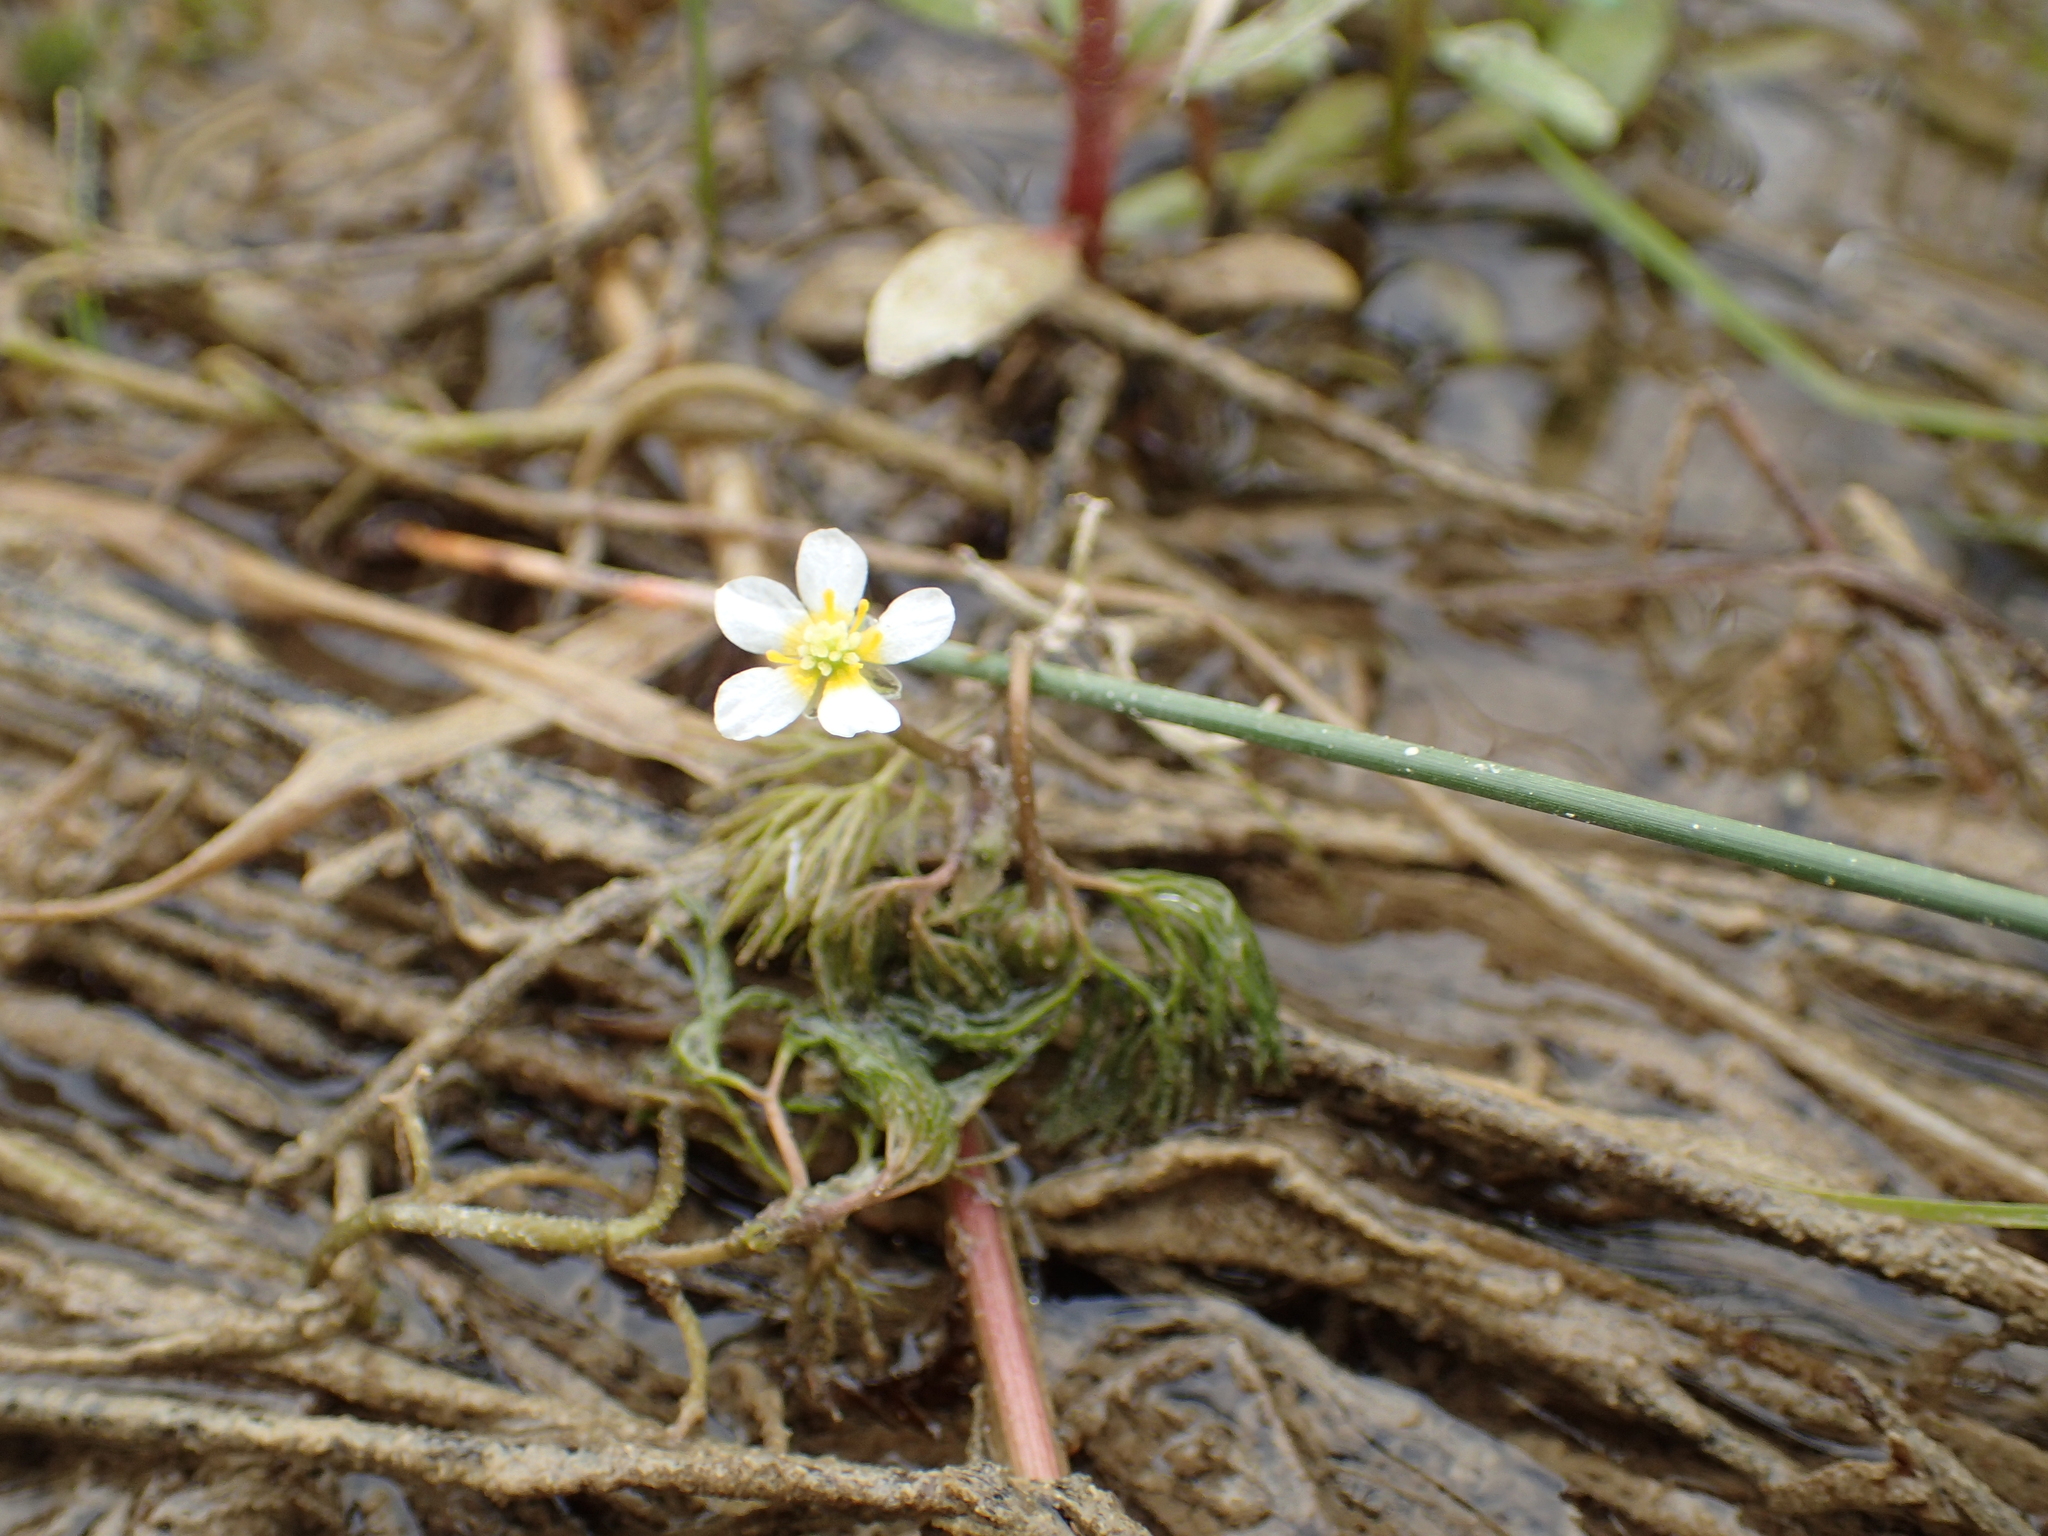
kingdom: Plantae
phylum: Tracheophyta
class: Magnoliopsida
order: Ranunculales
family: Ranunculaceae
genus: Ranunculus
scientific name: Ranunculus trichophyllus
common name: Thread-leaved water-crowfoot
